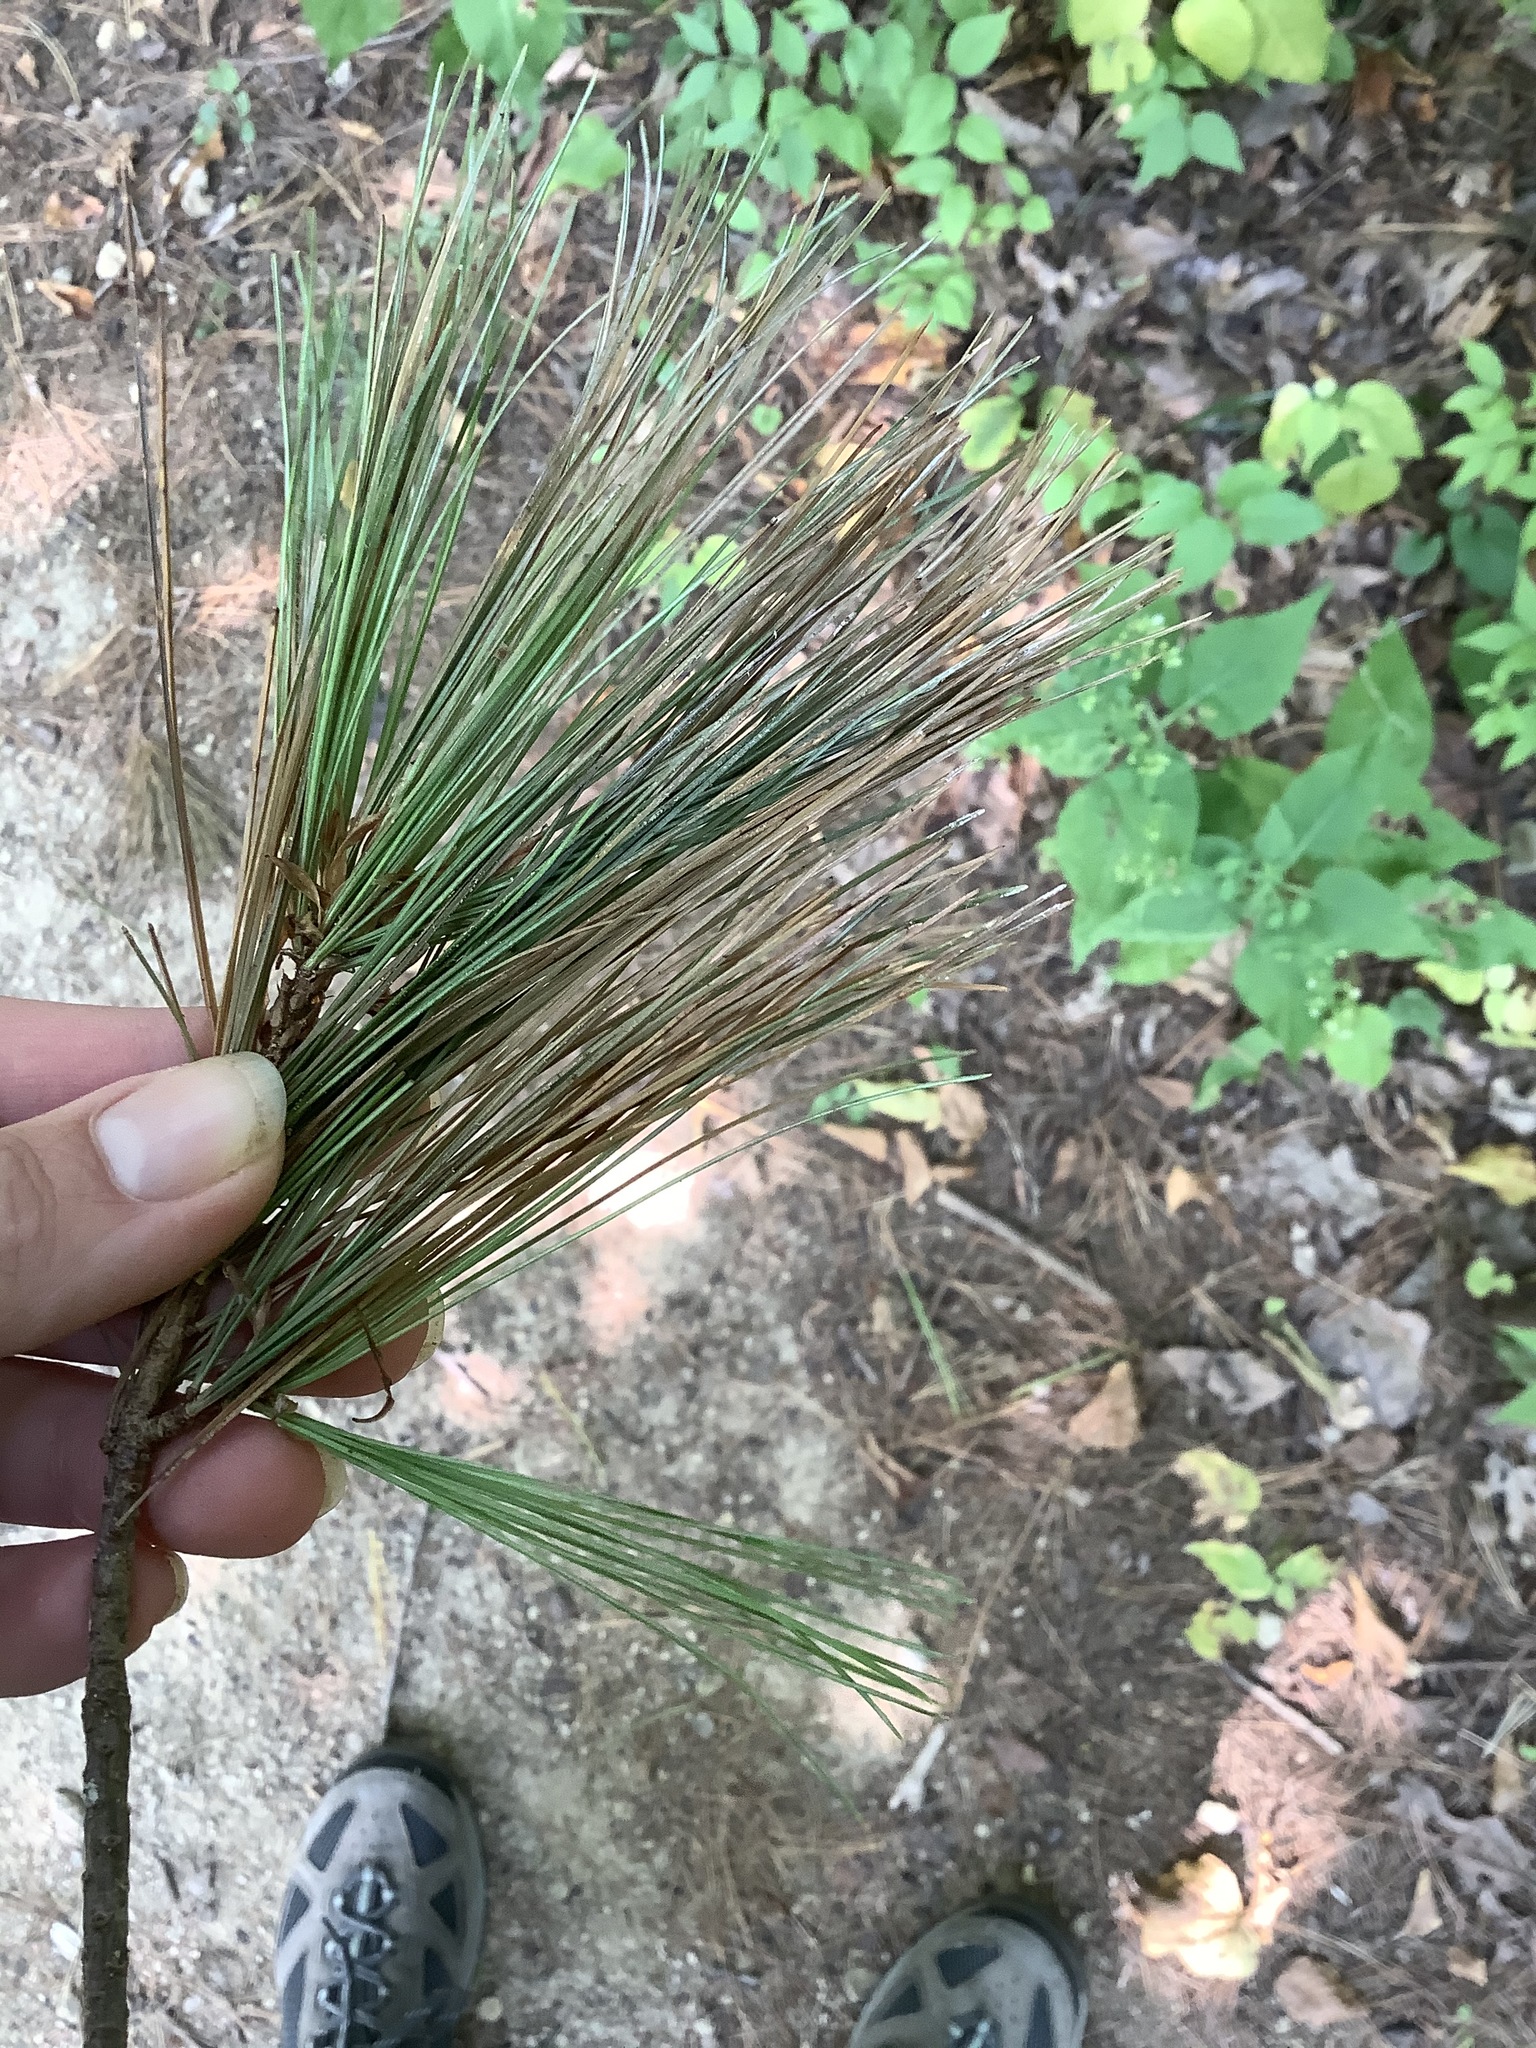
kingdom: Plantae
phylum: Tracheophyta
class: Pinopsida
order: Pinales
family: Pinaceae
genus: Pinus
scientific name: Pinus strobus
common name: Weymouth pine
